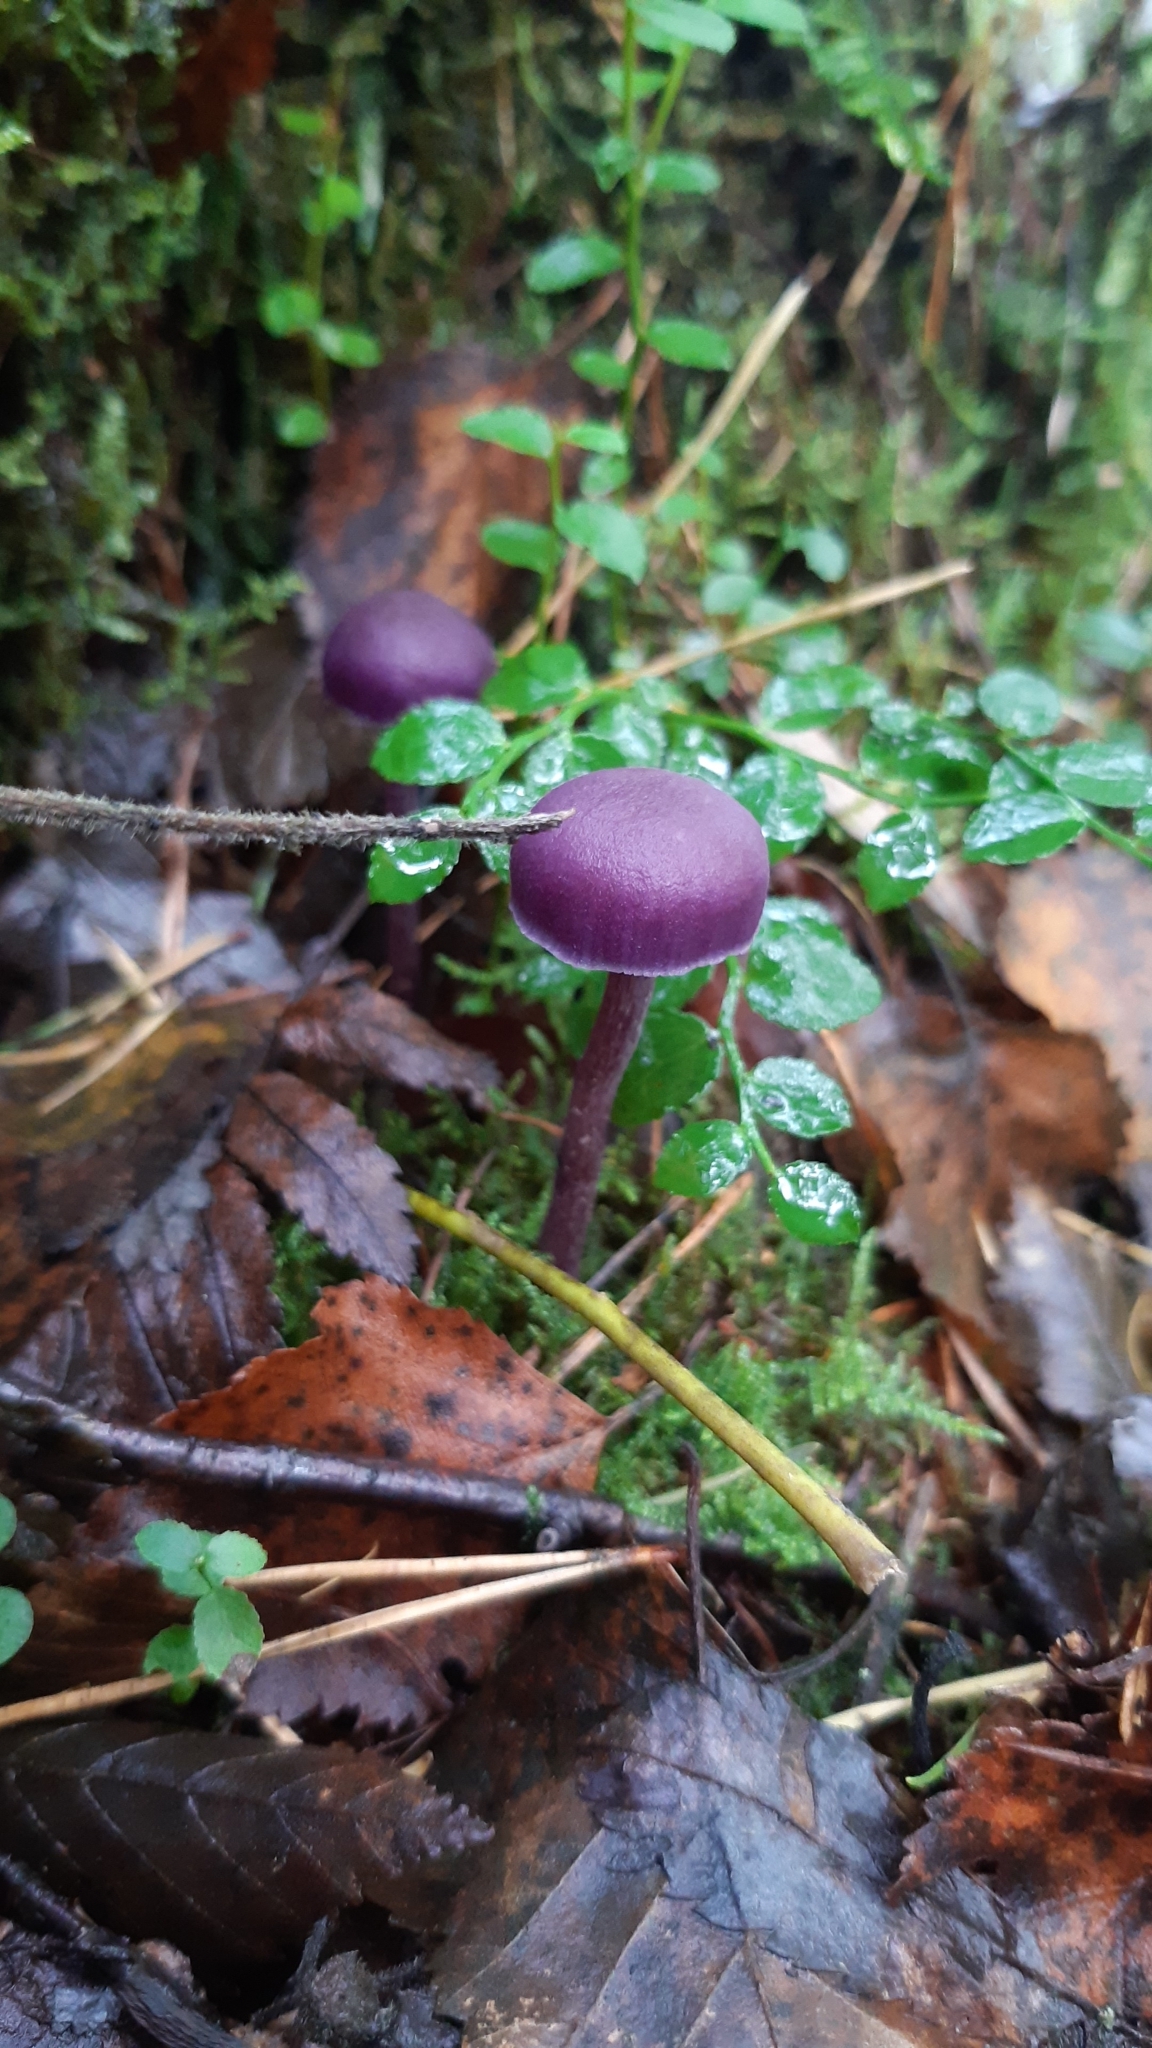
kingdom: Fungi
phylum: Basidiomycota
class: Agaricomycetes
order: Agaricales
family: Hydnangiaceae
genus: Laccaria
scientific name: Laccaria amethystina
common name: Amethyst deceiver
